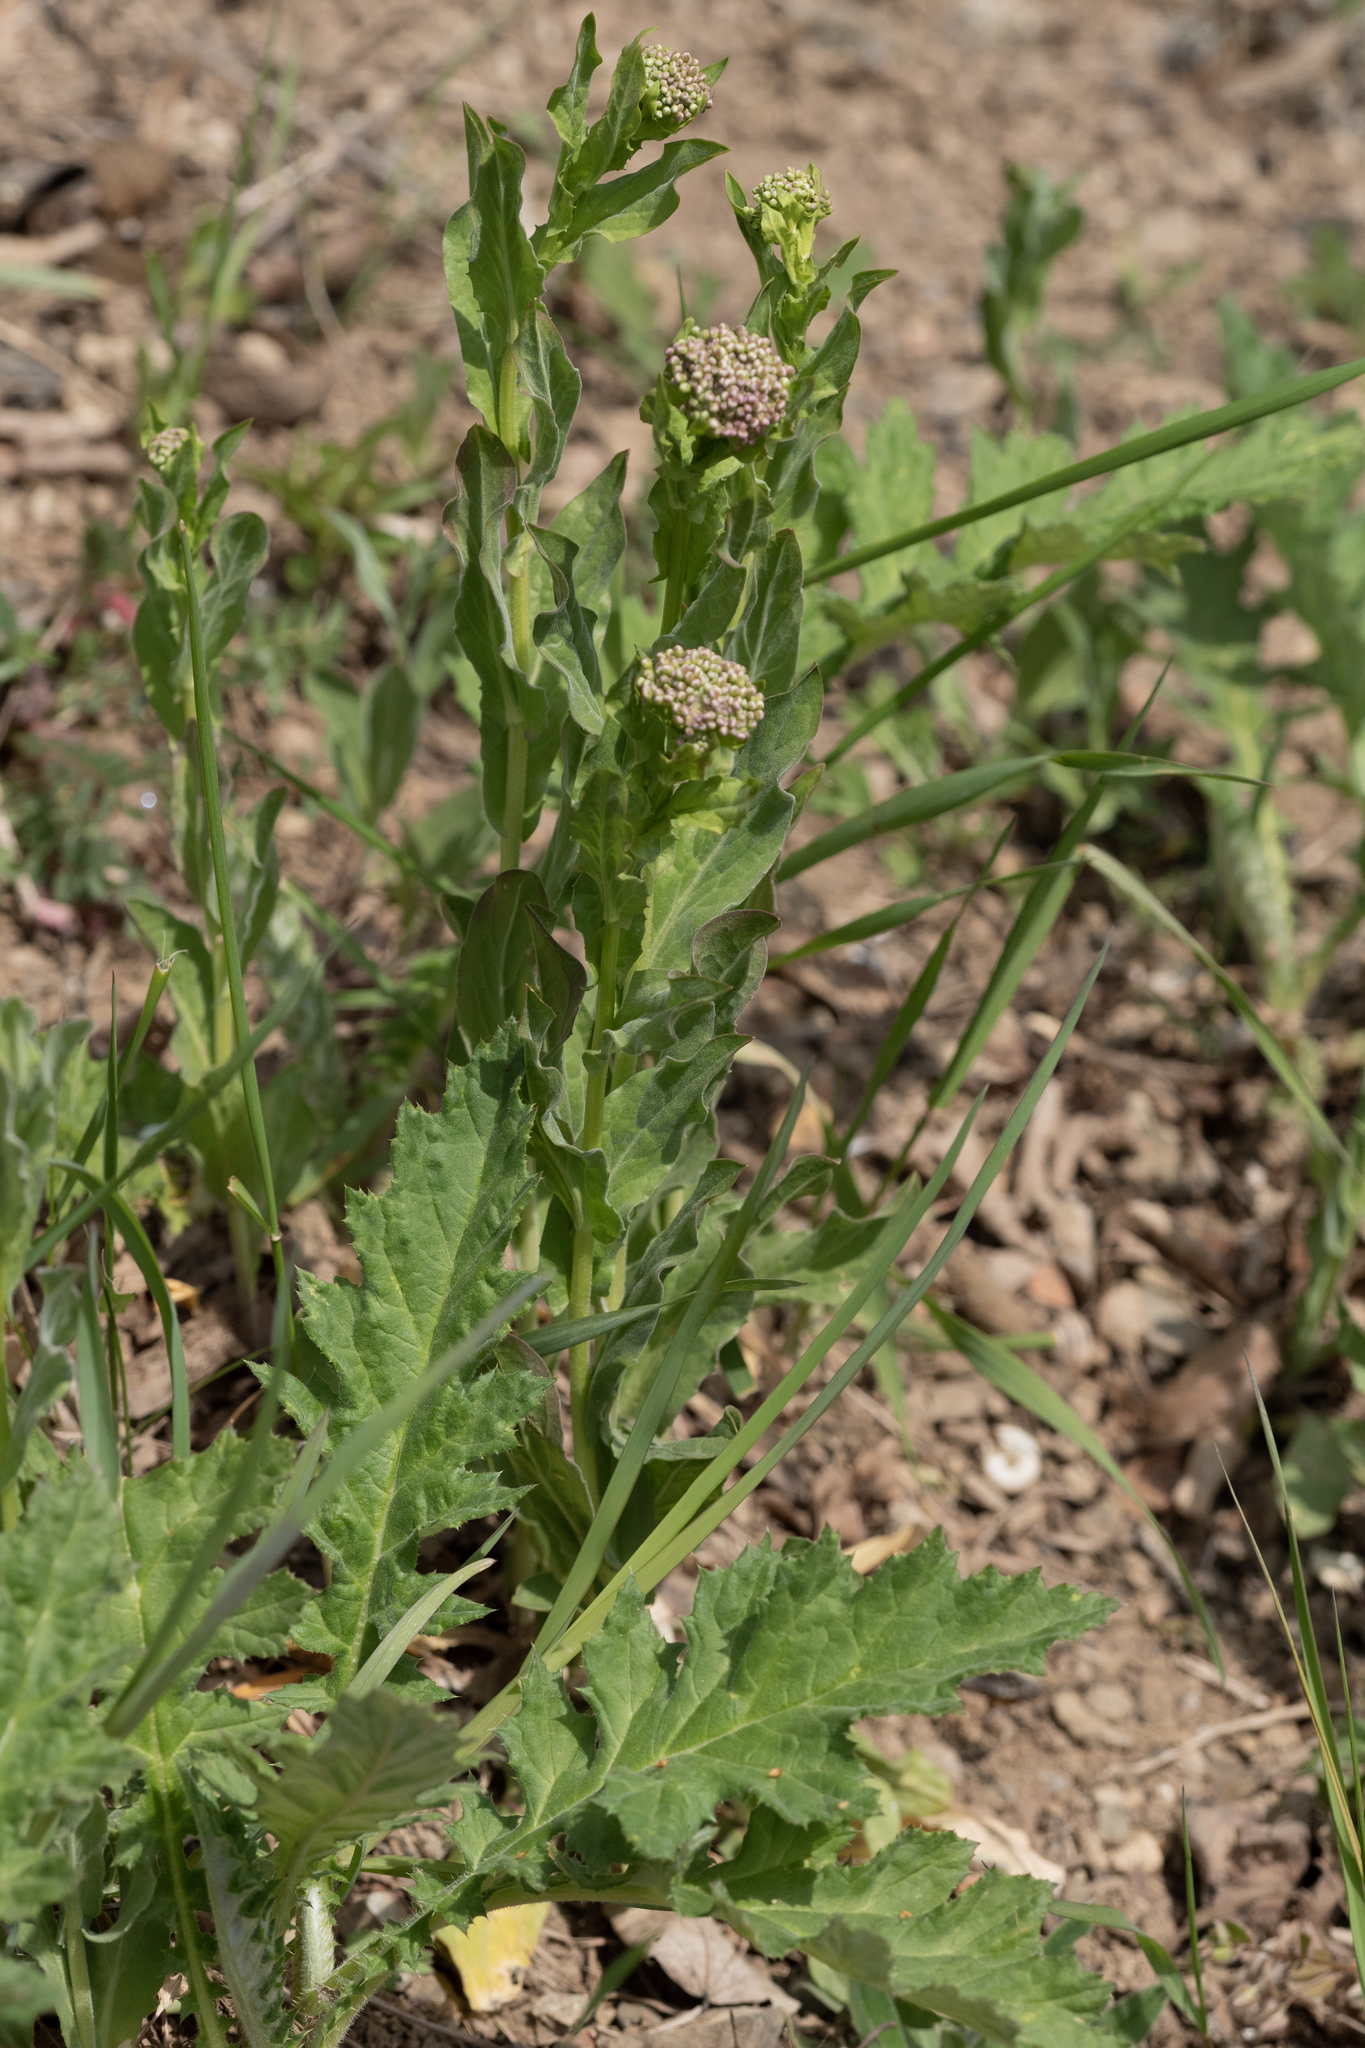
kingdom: Plantae
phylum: Tracheophyta
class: Magnoliopsida
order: Brassicales
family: Brassicaceae
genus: Lepidium
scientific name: Lepidium draba
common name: Hoary cress
